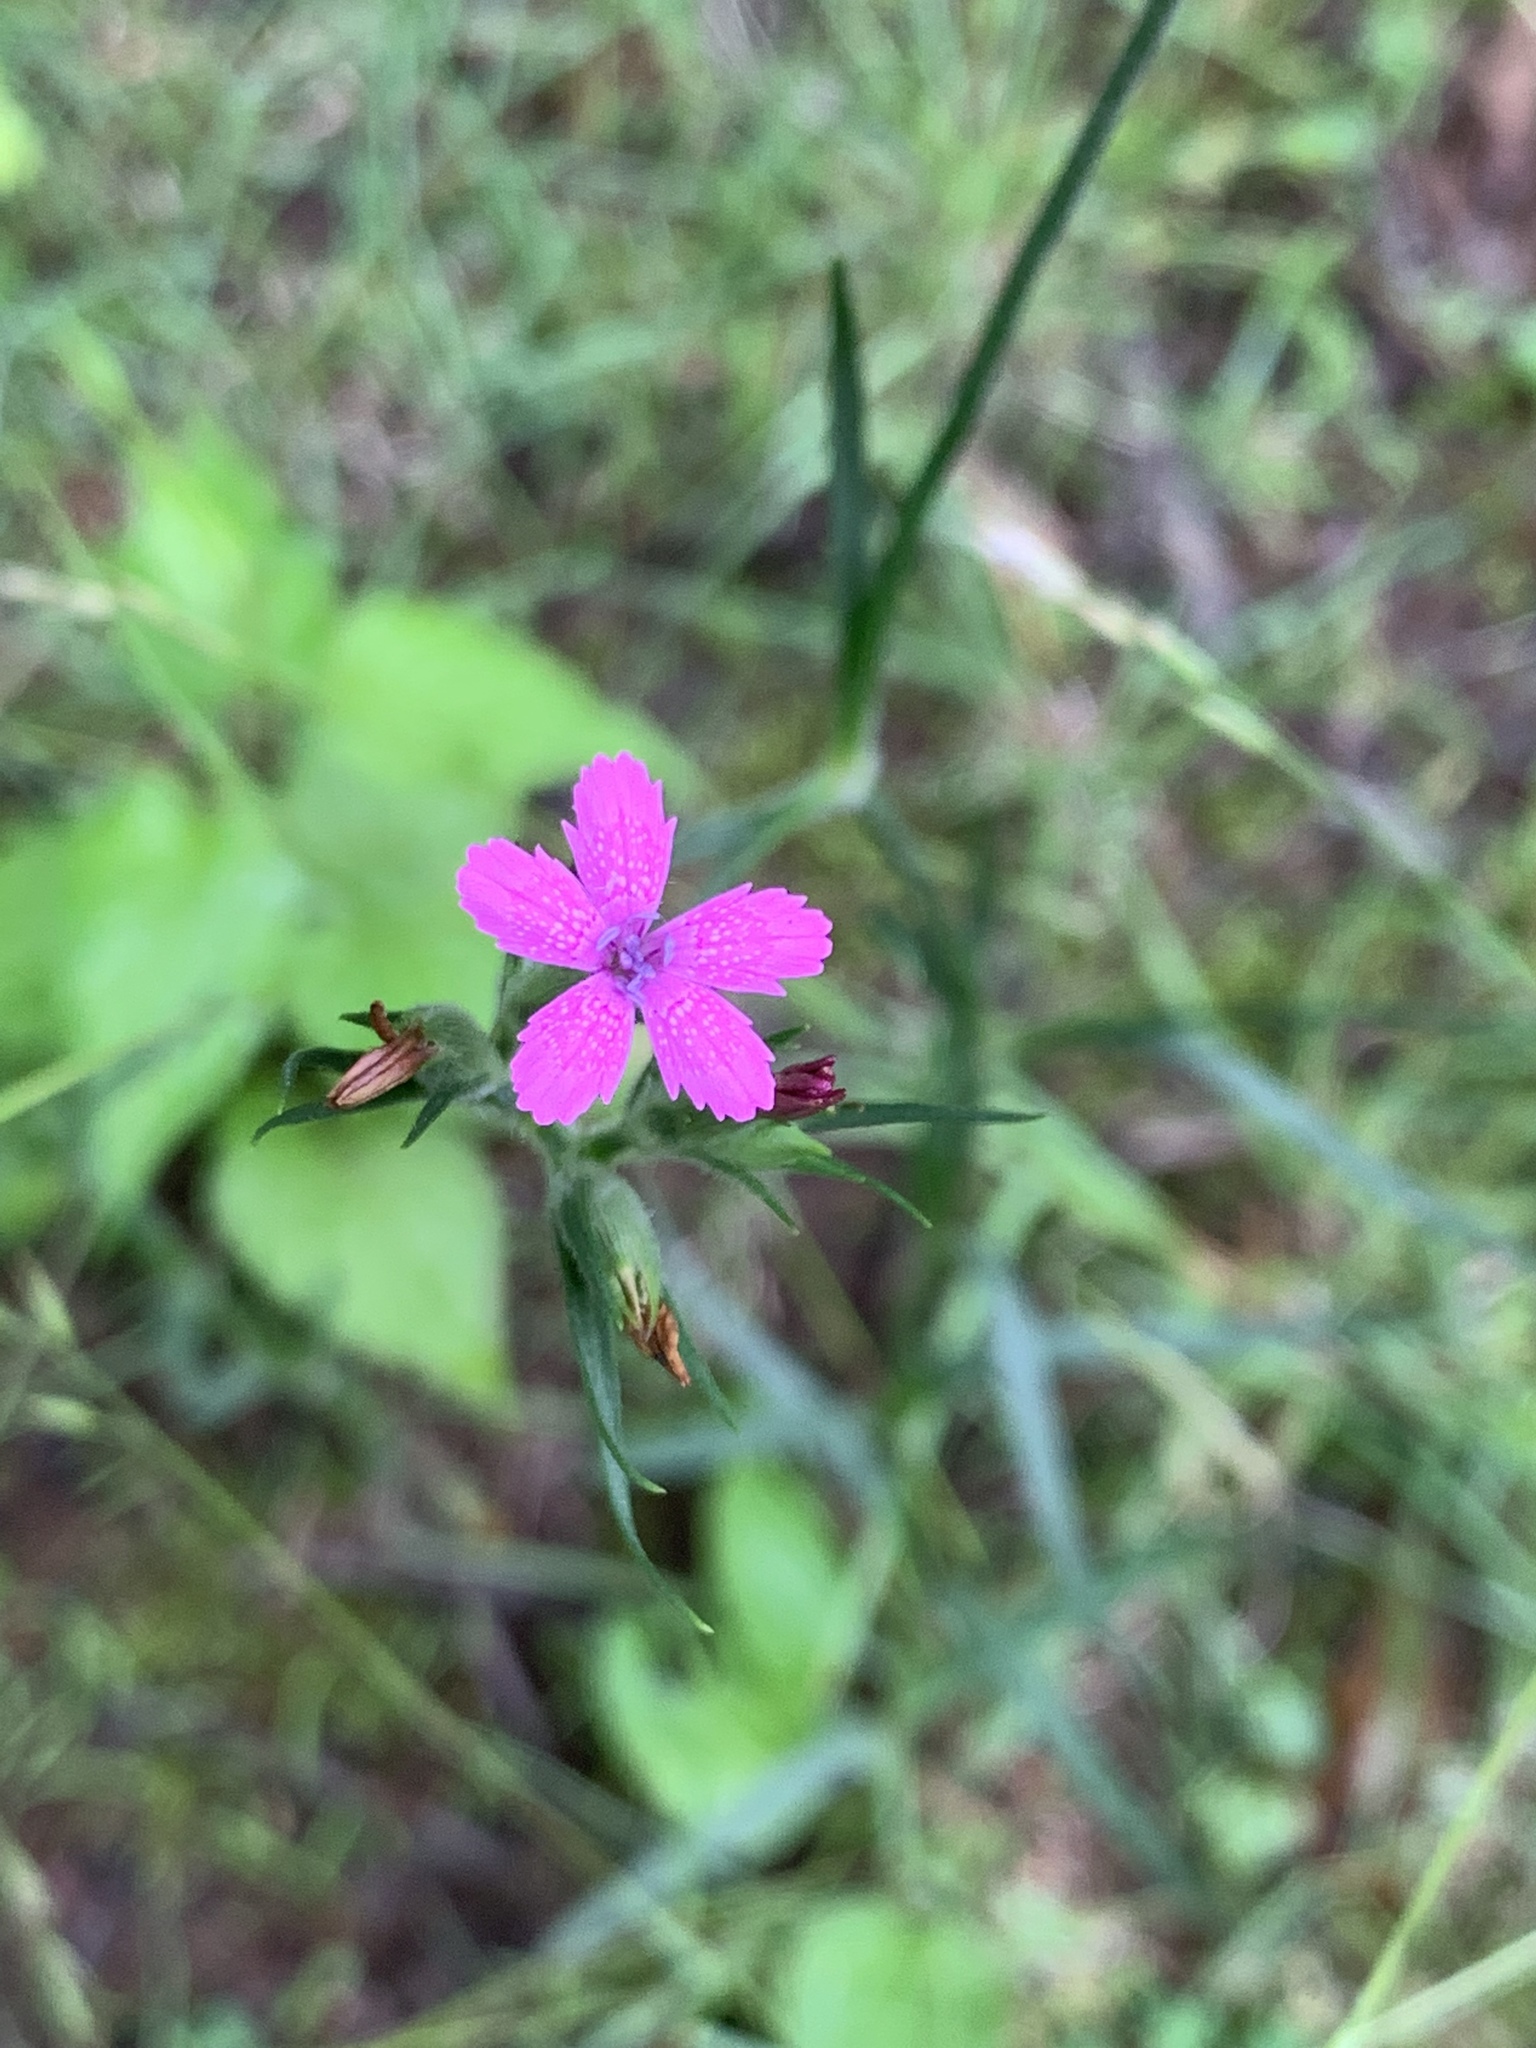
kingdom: Plantae
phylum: Tracheophyta
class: Magnoliopsida
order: Caryophyllales
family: Caryophyllaceae
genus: Dianthus
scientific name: Dianthus armeria
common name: Deptford pink
